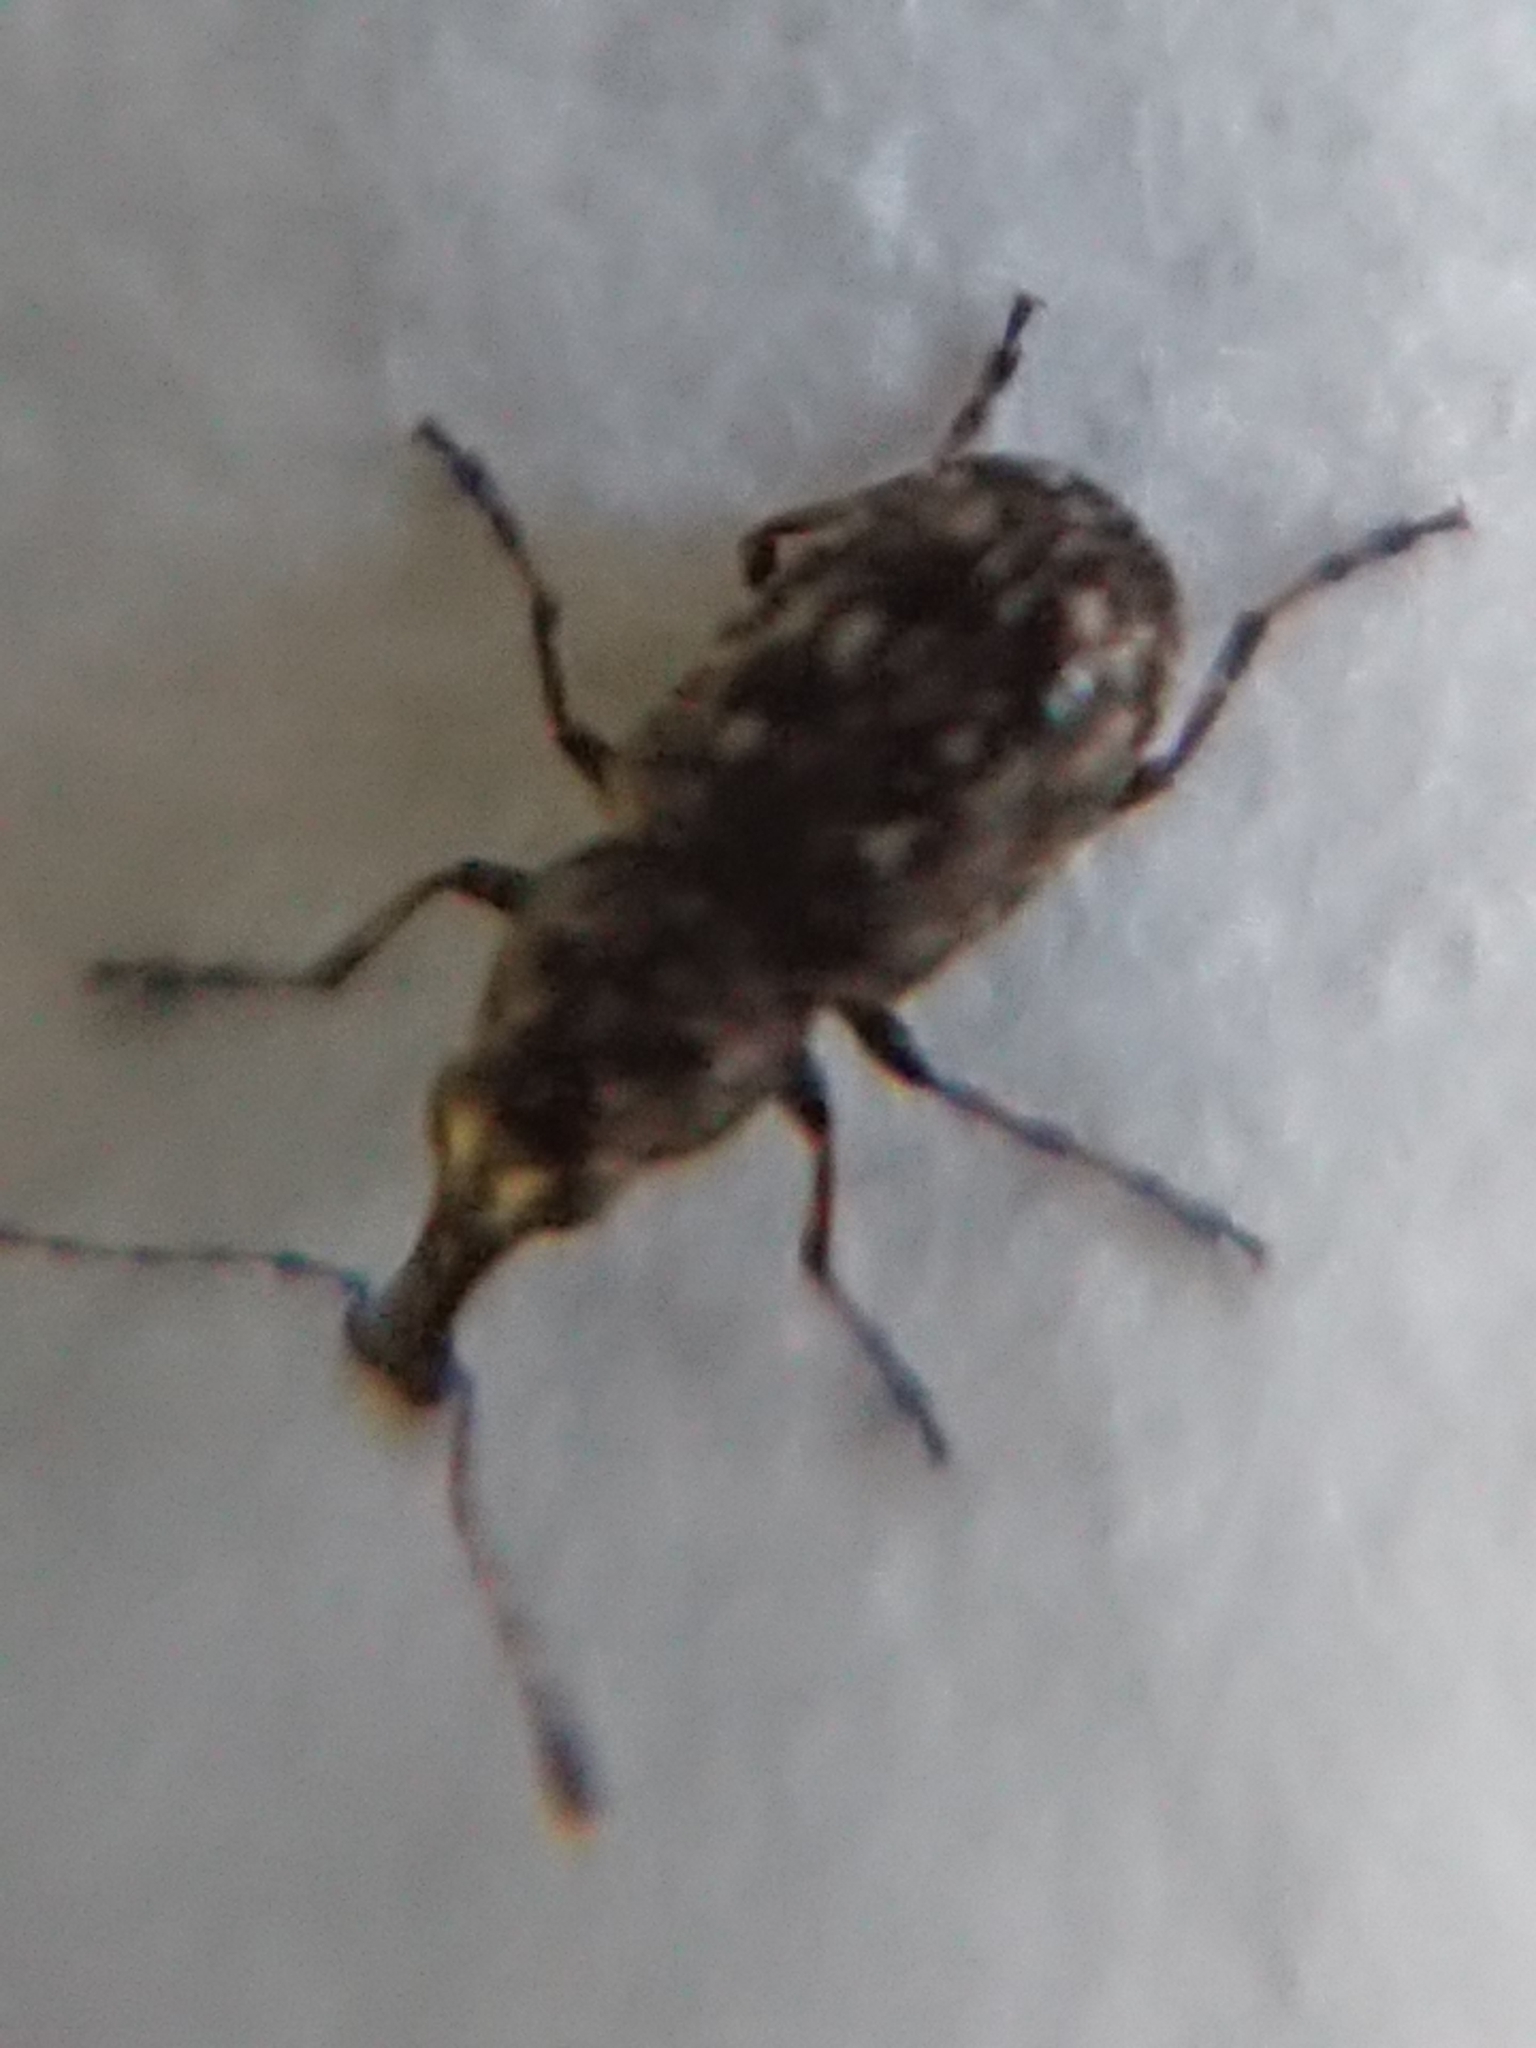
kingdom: Animalia
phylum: Arthropoda
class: Insecta
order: Coleoptera
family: Anthribidae
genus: Helmoreus
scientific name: Helmoreus
